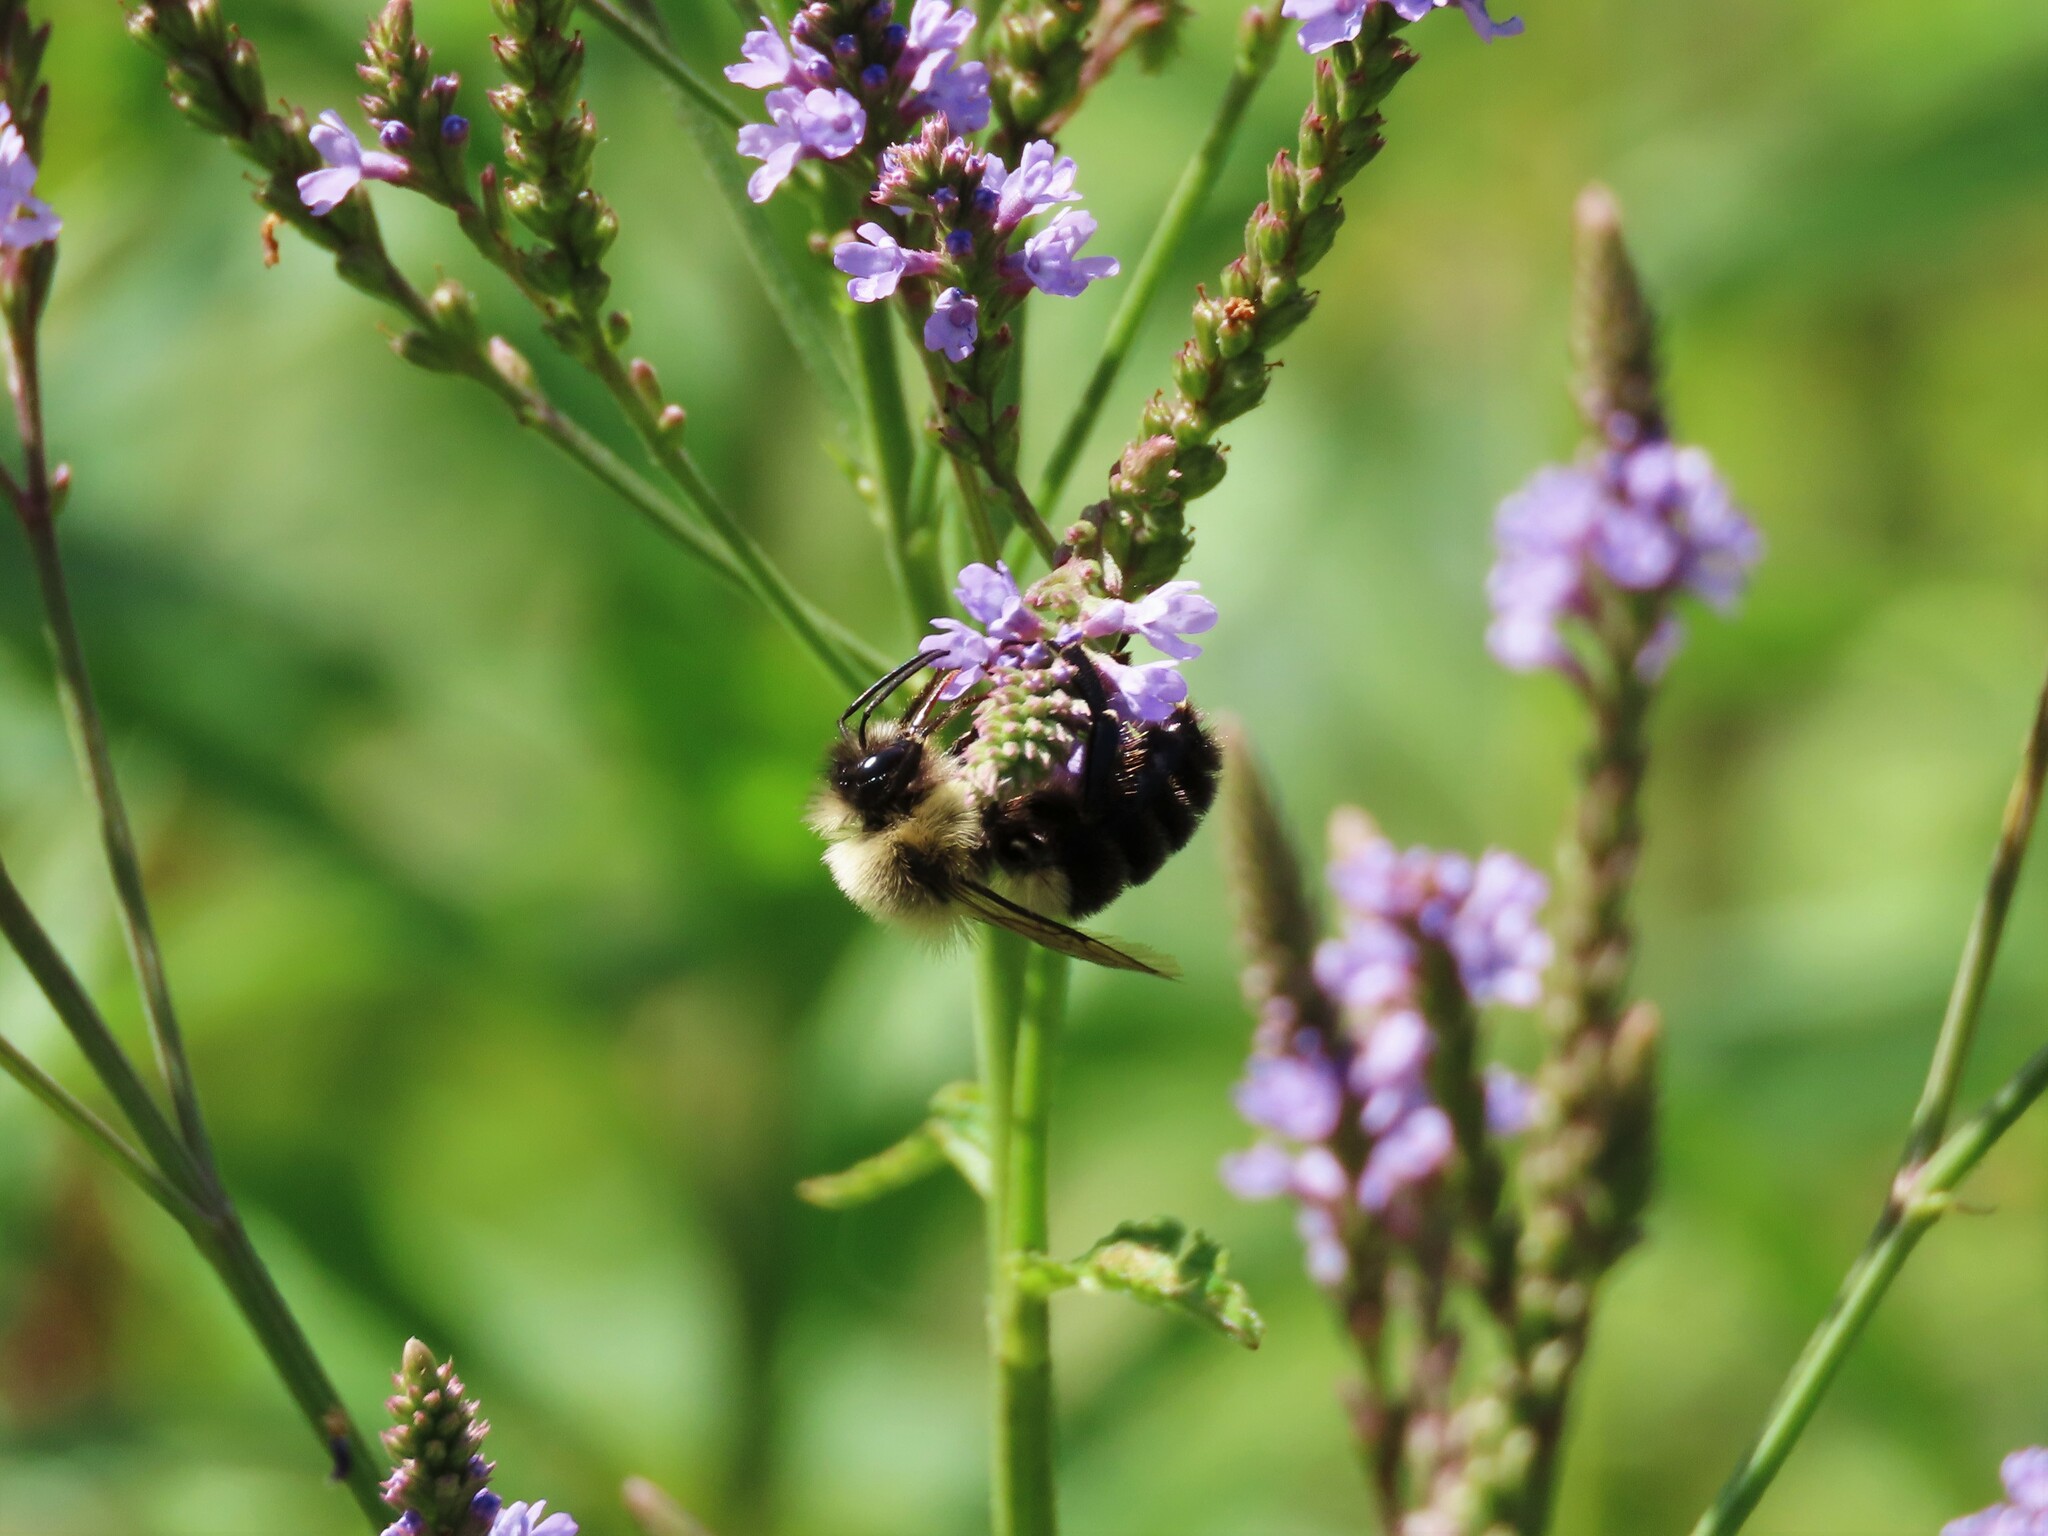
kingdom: Animalia
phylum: Arthropoda
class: Insecta
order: Hymenoptera
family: Apidae
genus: Bombus
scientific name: Bombus impatiens
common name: Common eastern bumble bee
